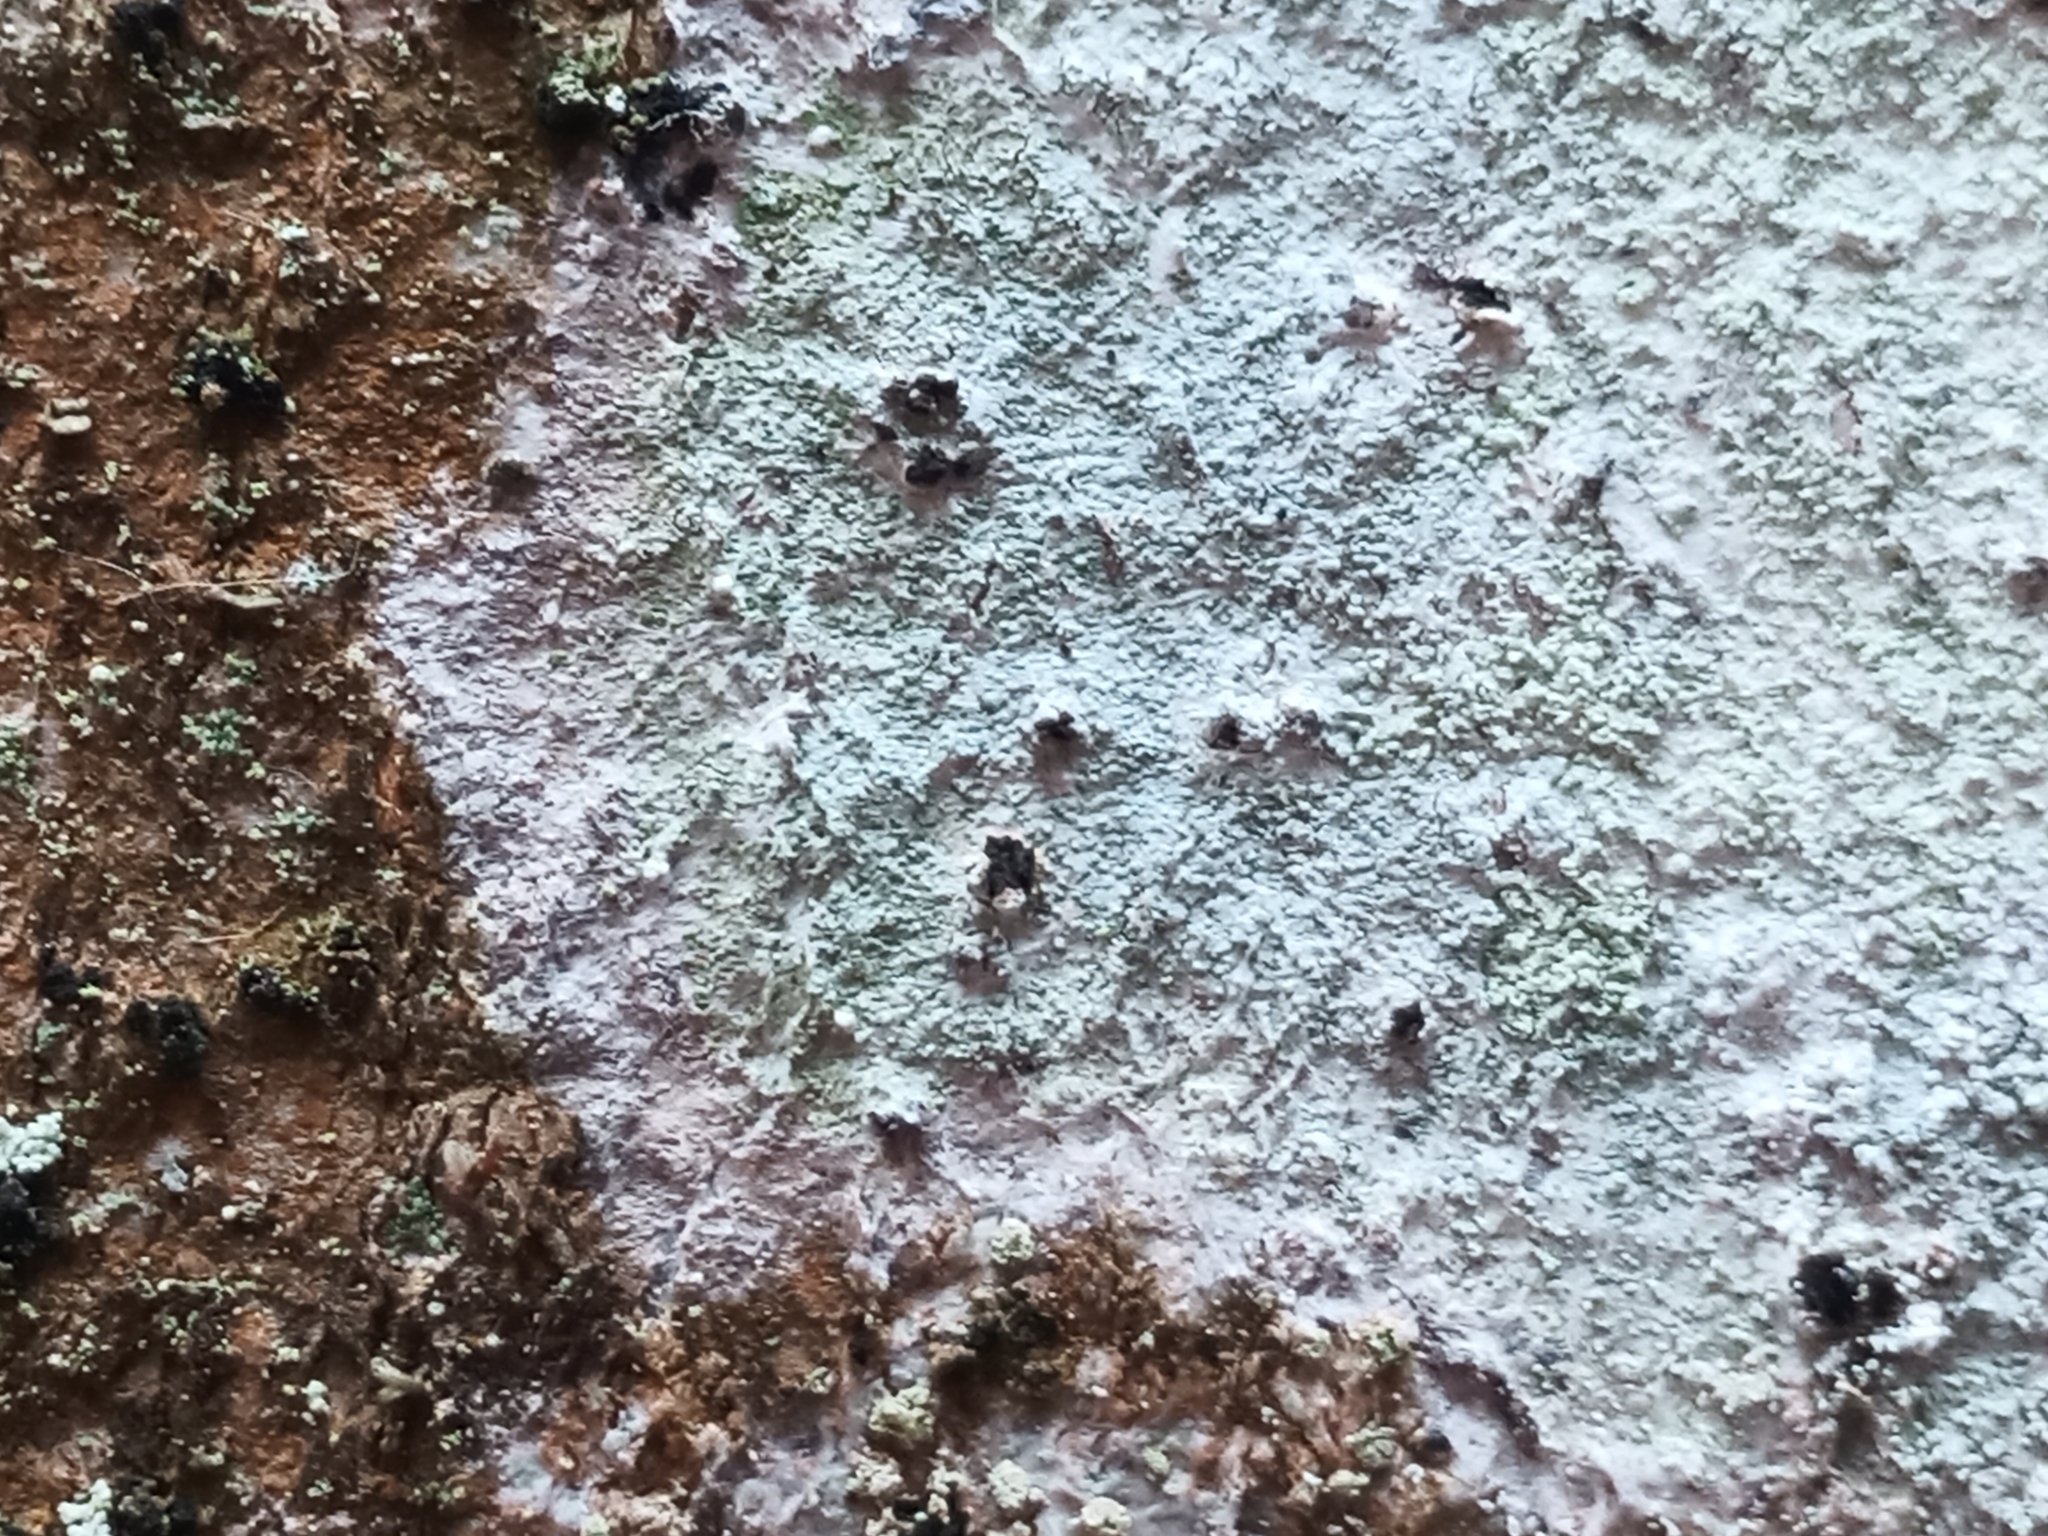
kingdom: Fungi
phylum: Ascomycota
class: Lecanoromycetes
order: Ostropales
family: Phlyctidaceae
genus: Phlyctis
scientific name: Phlyctis argena
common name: Whitewash lichen
